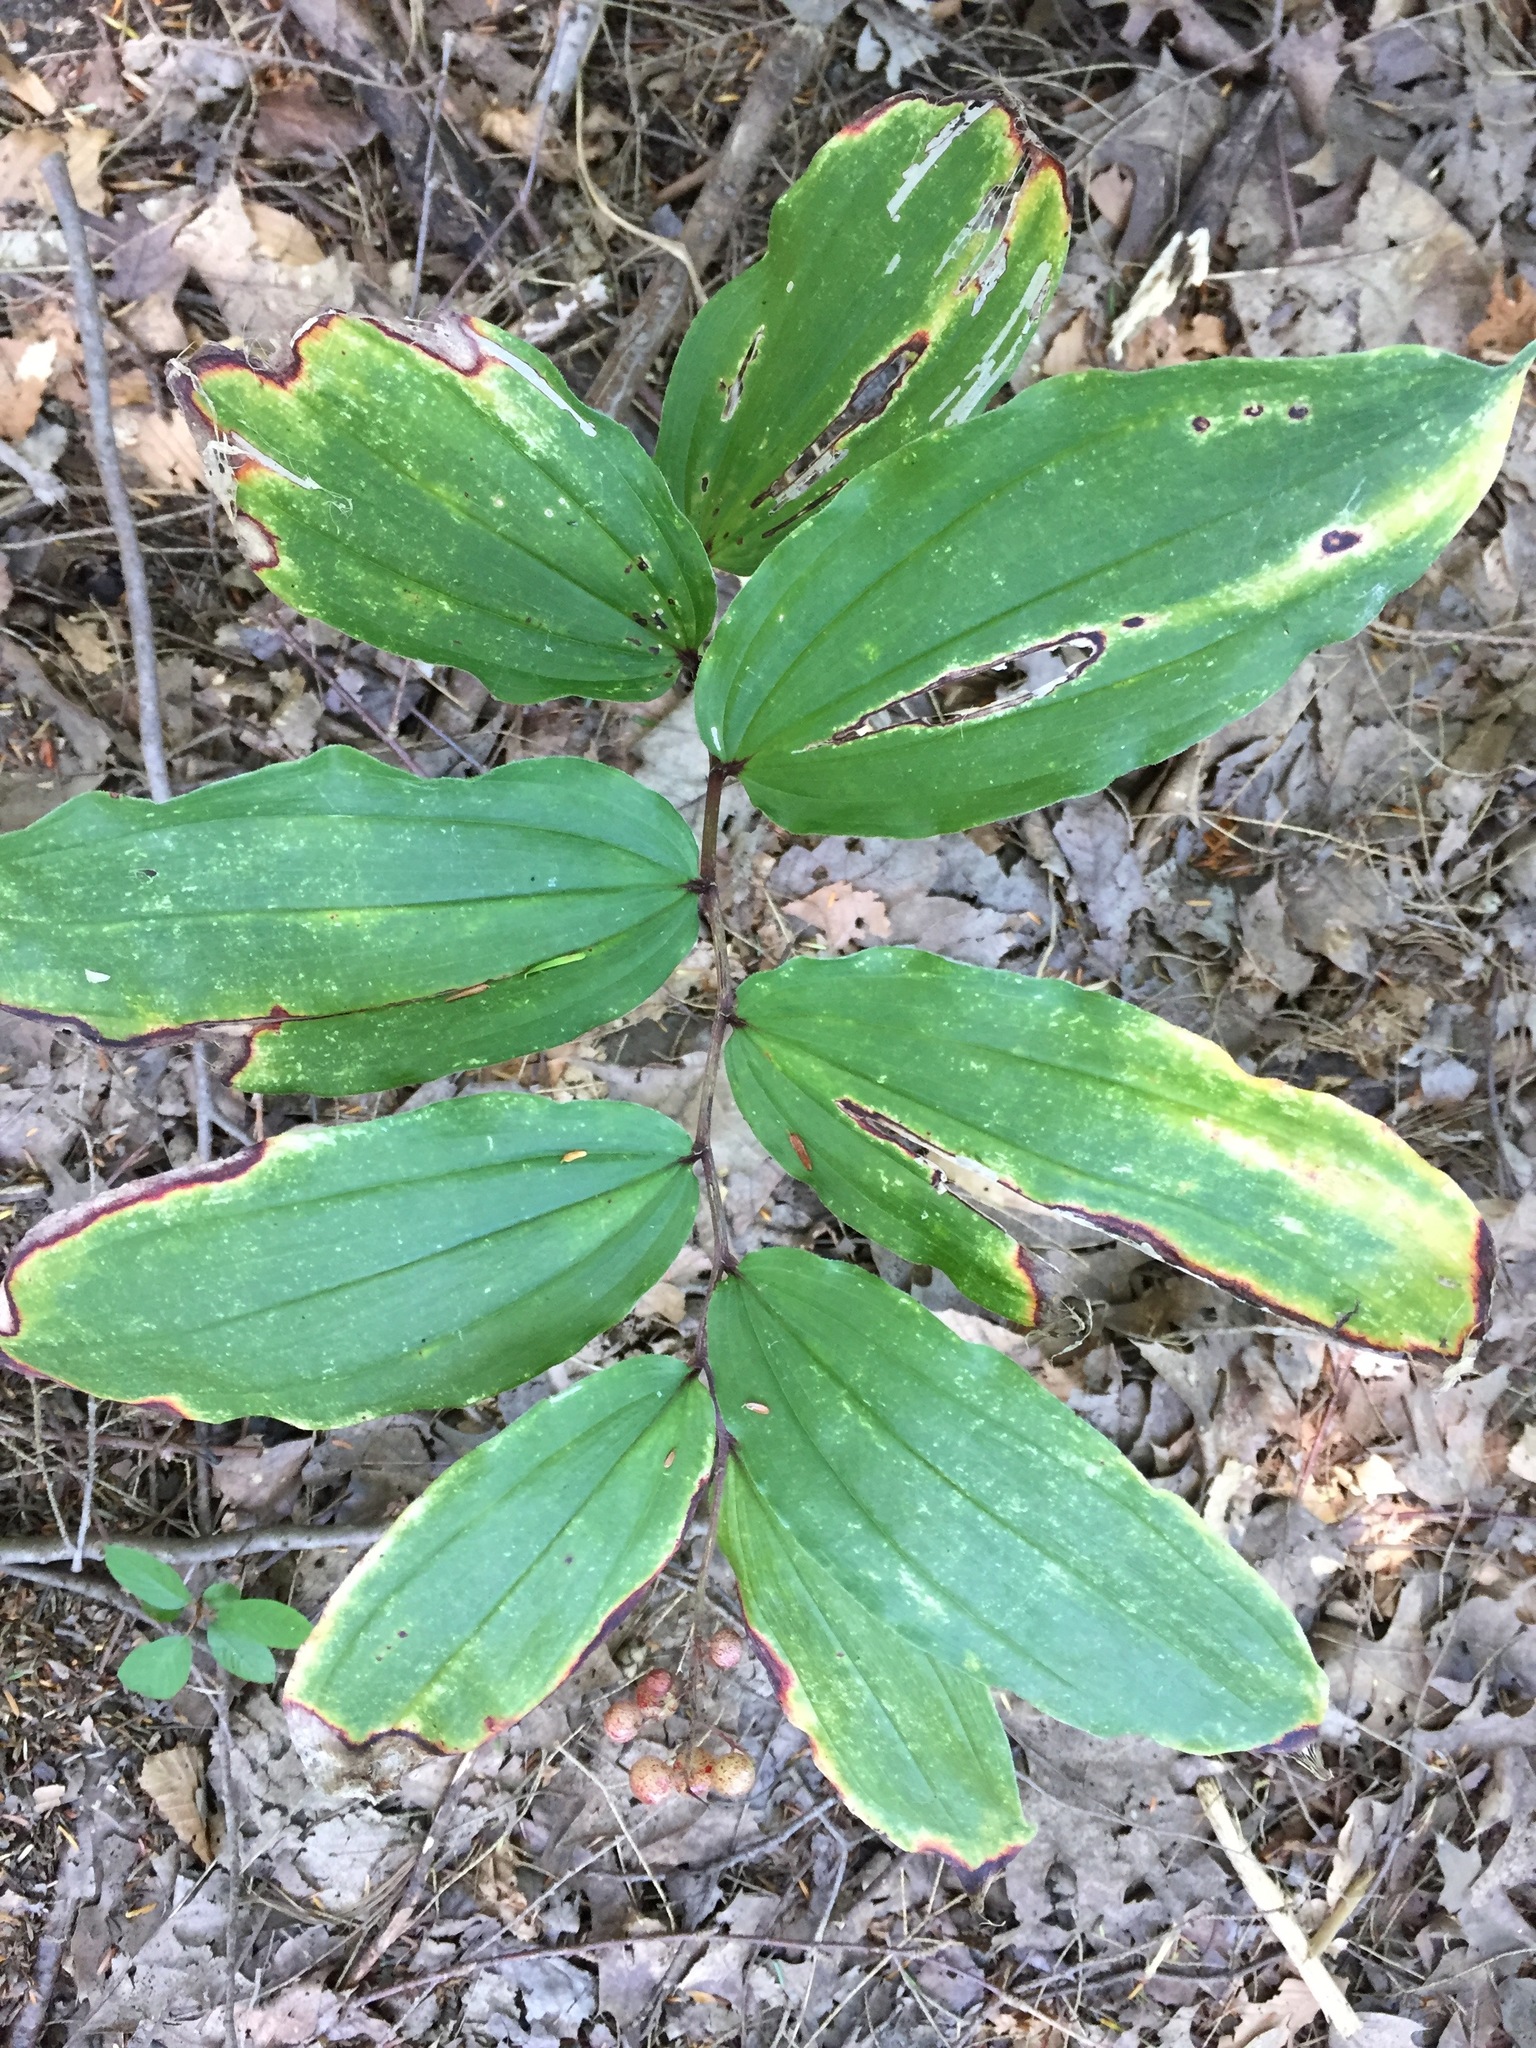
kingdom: Plantae
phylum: Tracheophyta
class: Liliopsida
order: Asparagales
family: Asparagaceae
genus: Maianthemum
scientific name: Maianthemum racemosum
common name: False spikenard
